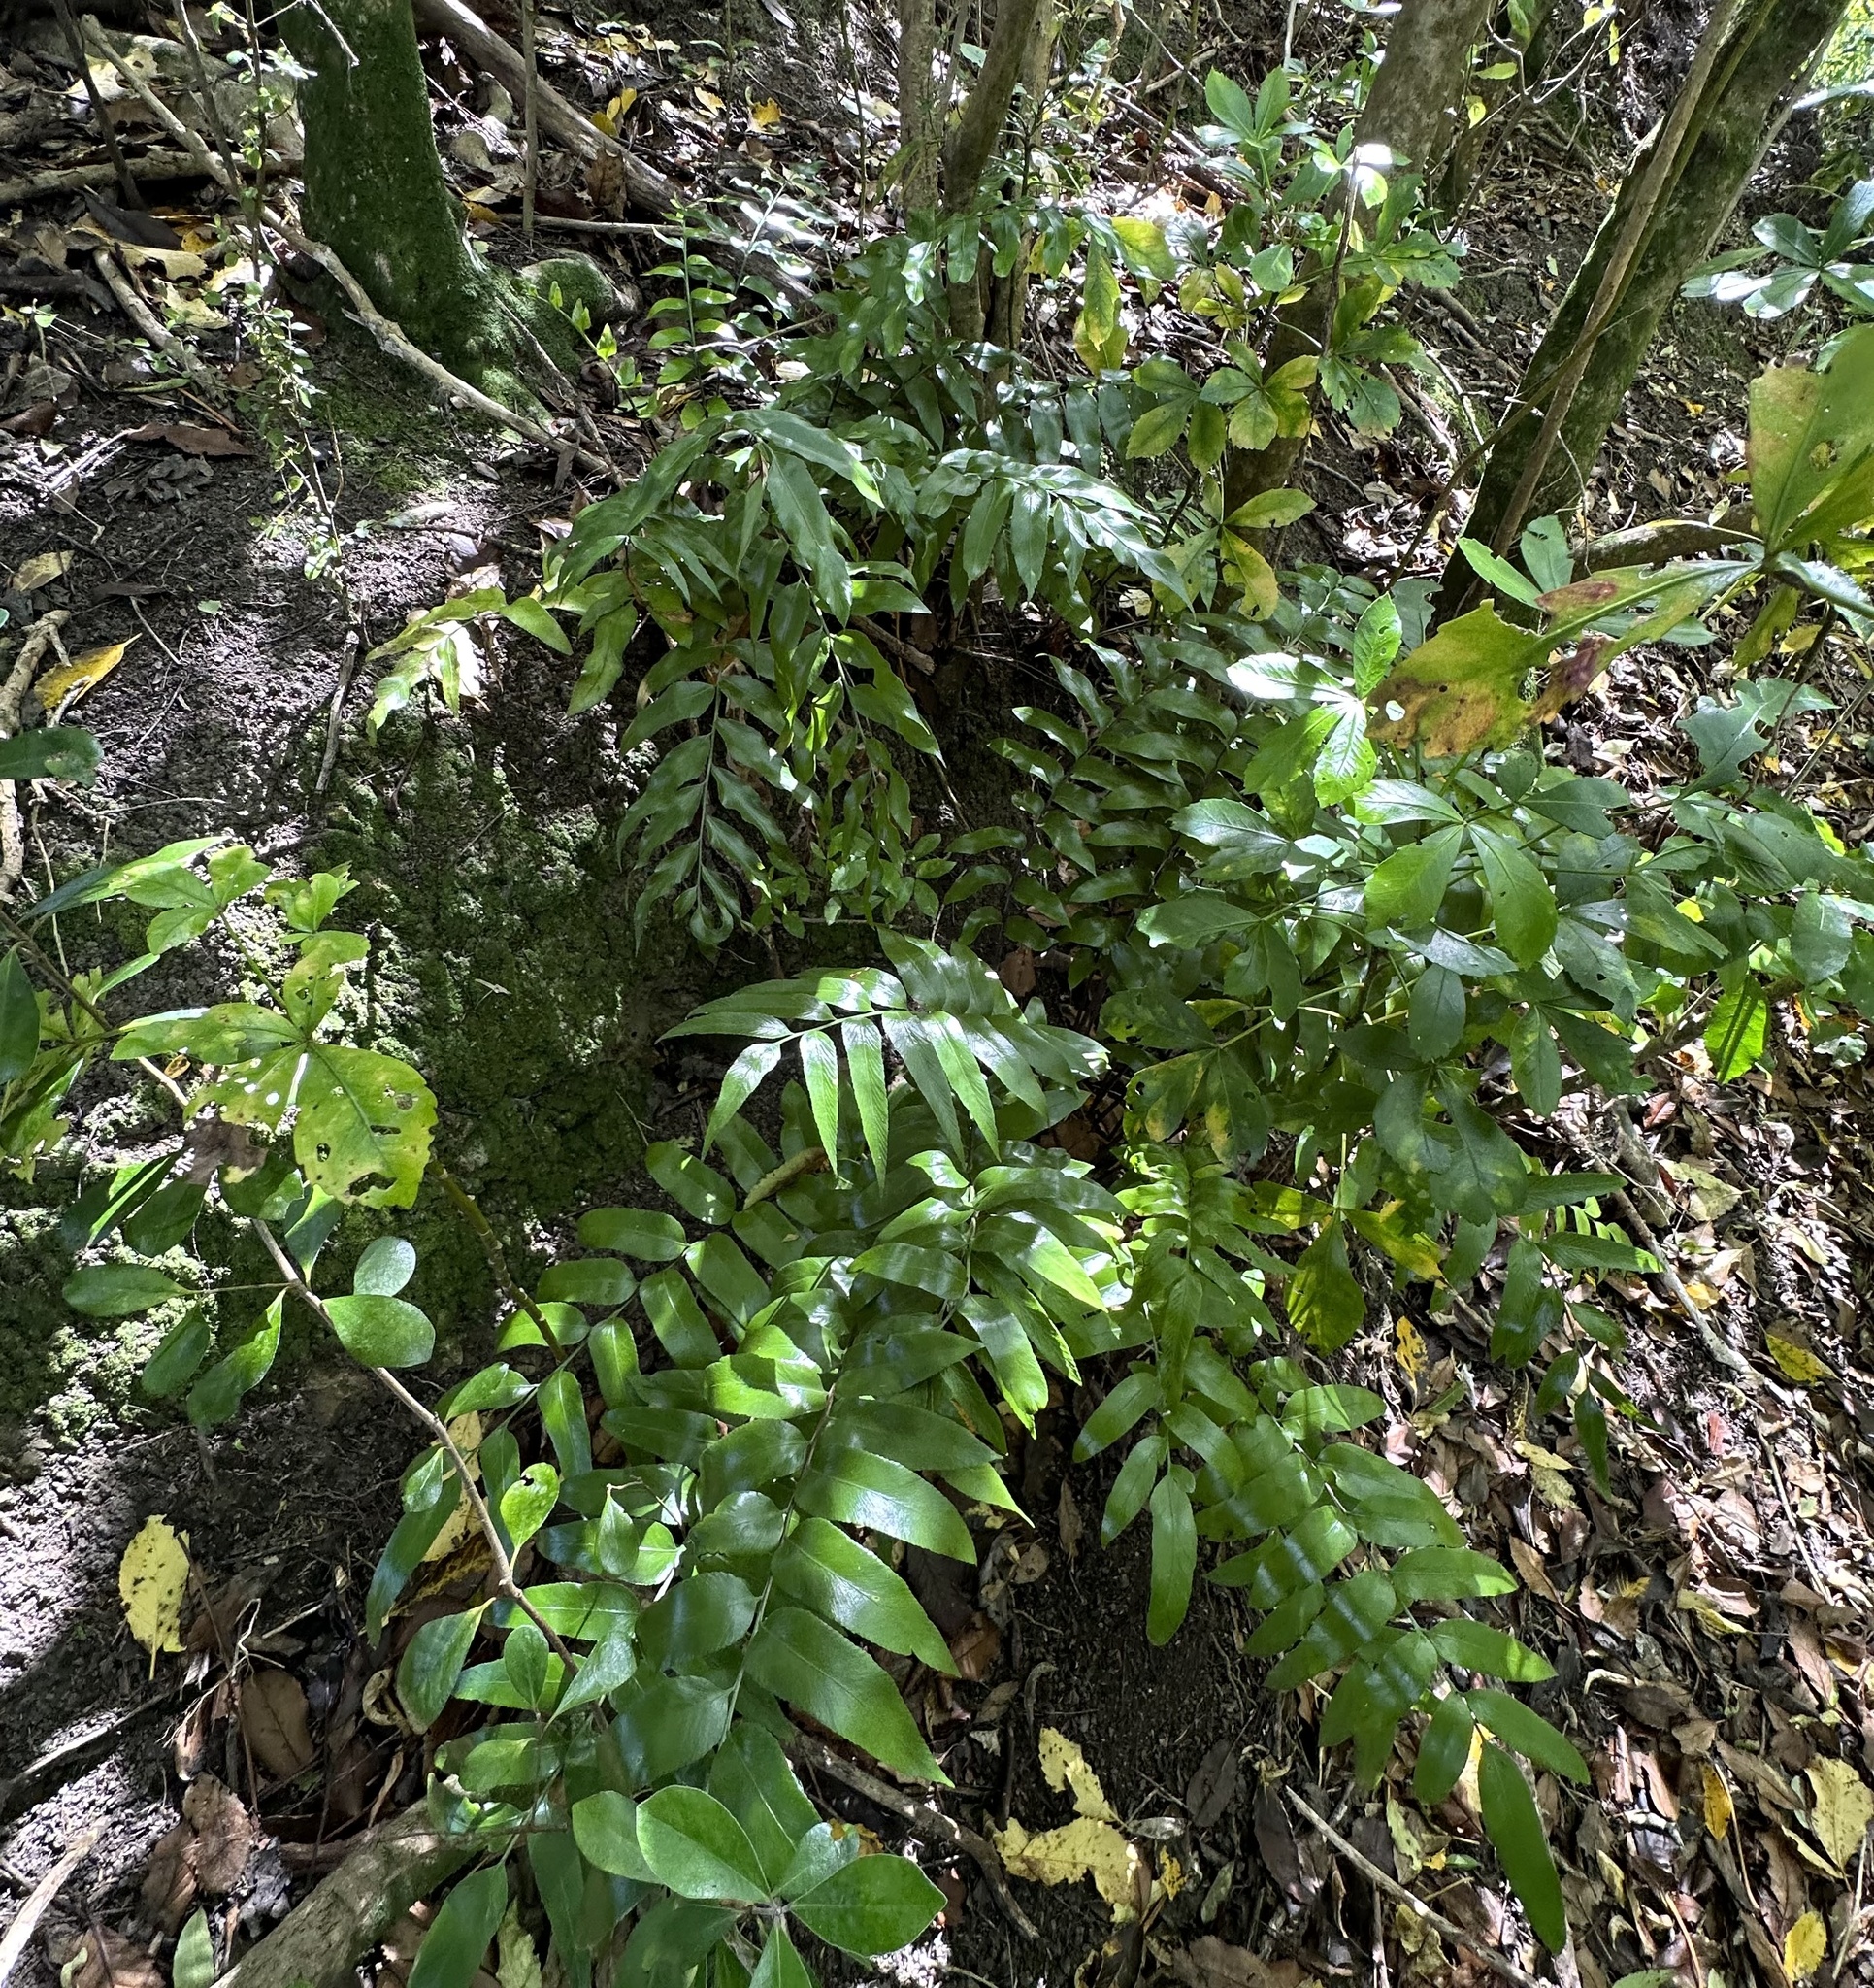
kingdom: Plantae
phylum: Tracheophyta
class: Polypodiopsida
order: Polypodiales
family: Aspleniaceae
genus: Asplenium
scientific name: Asplenium oblongifolium
